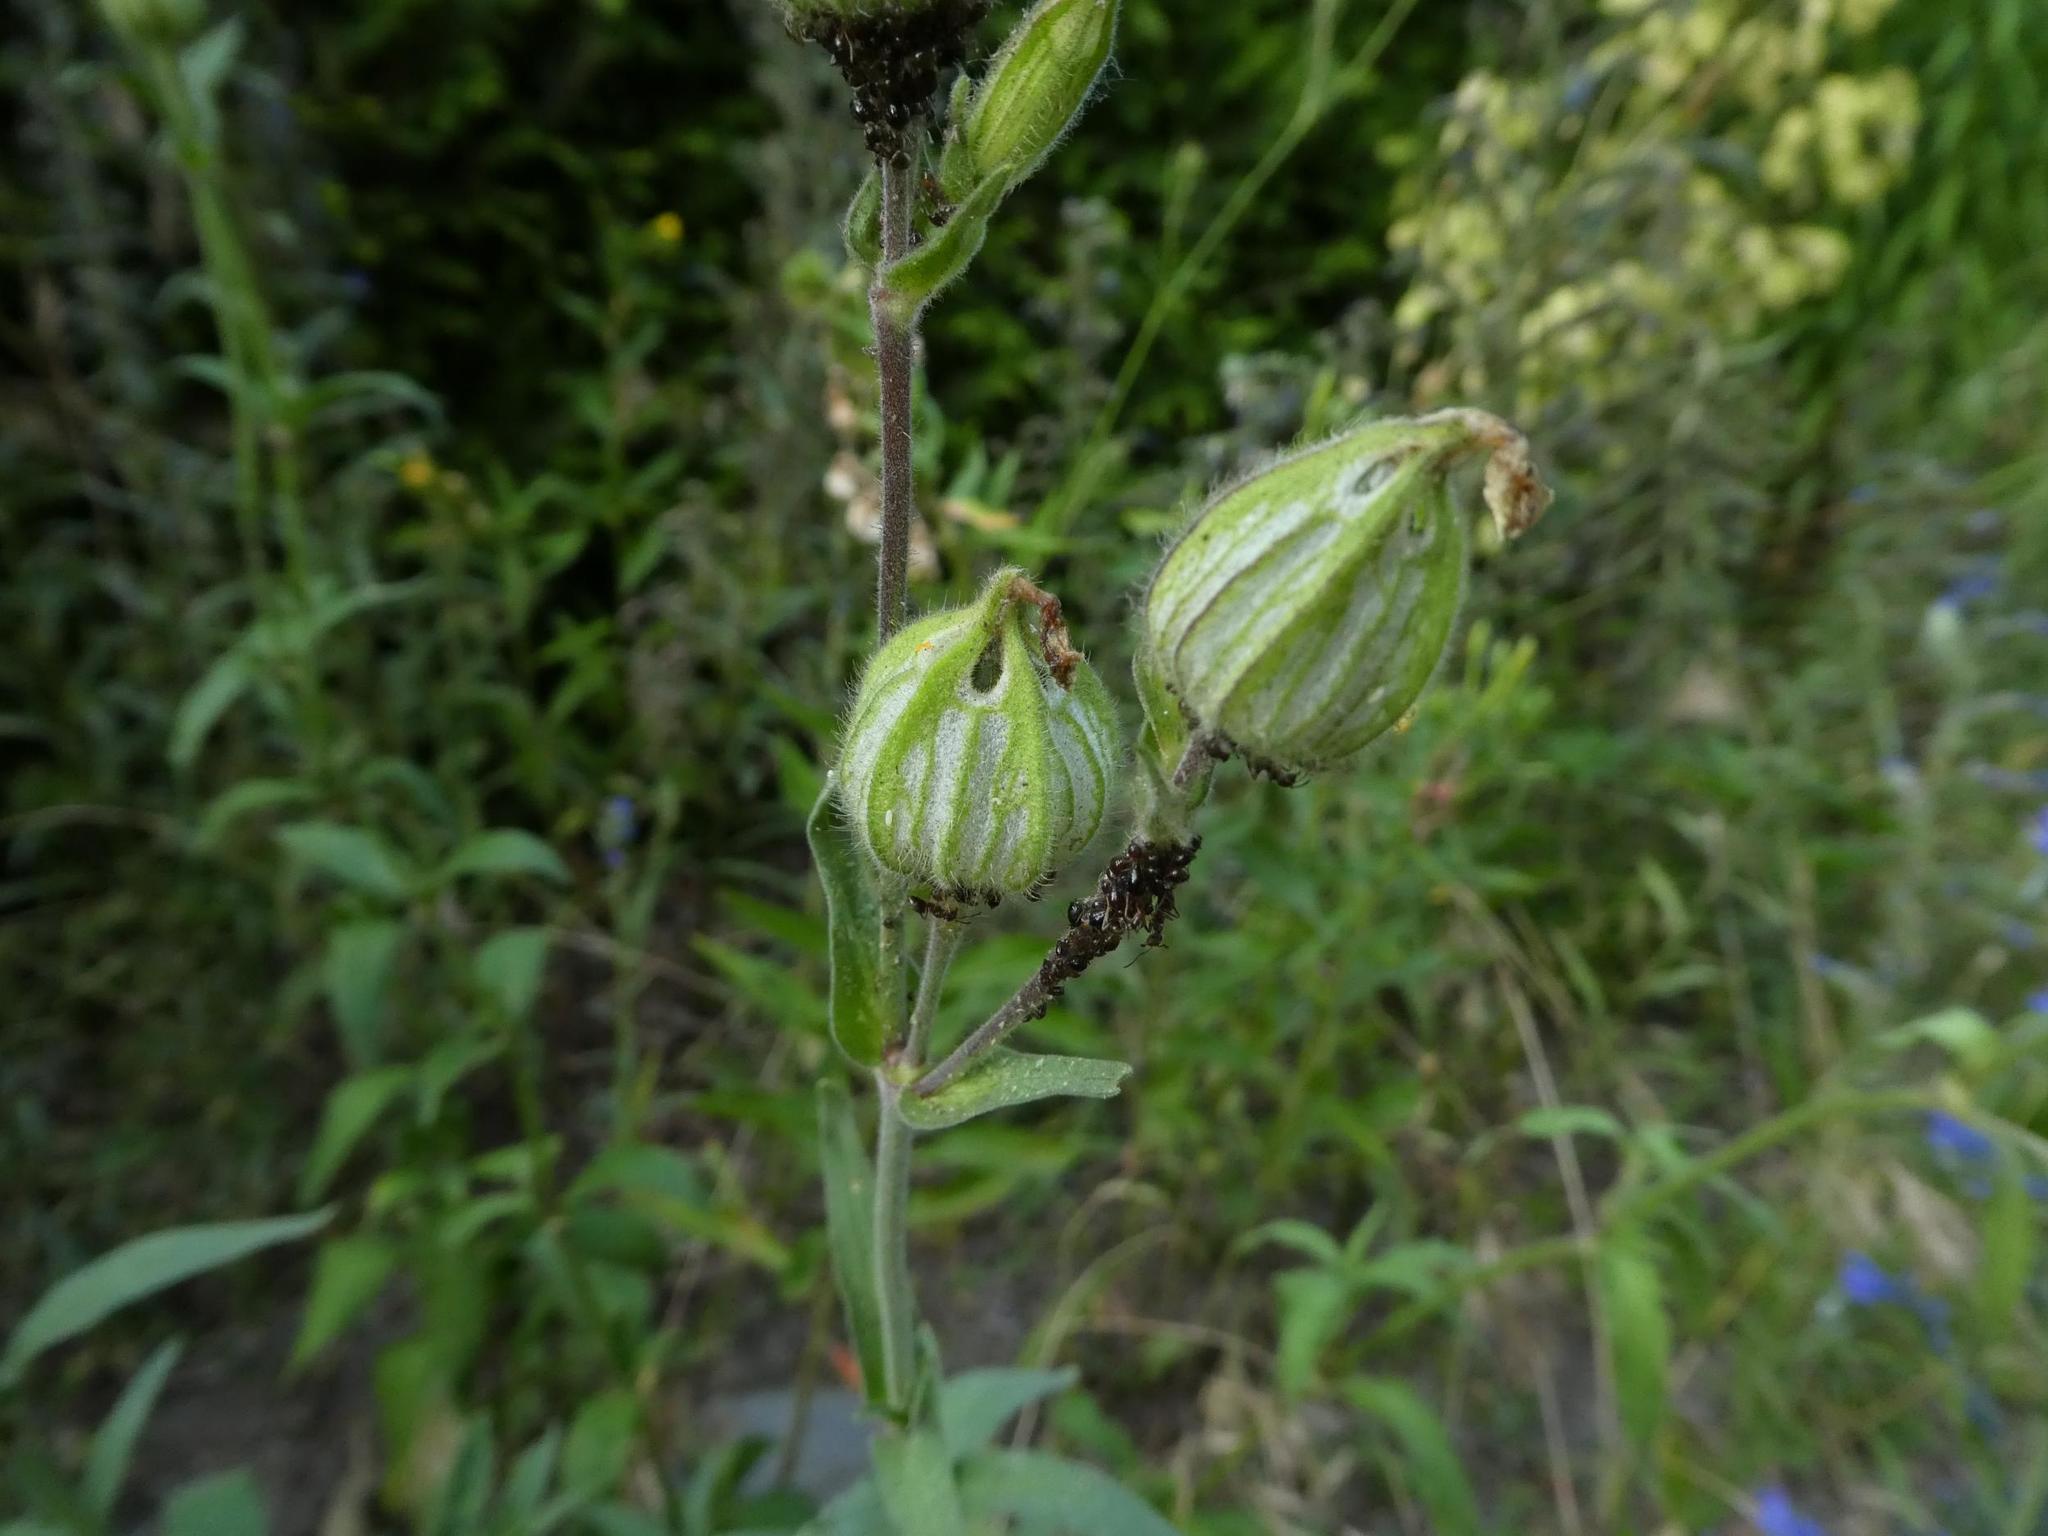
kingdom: Plantae
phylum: Tracheophyta
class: Magnoliopsida
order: Caryophyllales
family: Caryophyllaceae
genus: Silene
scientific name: Silene latifolia
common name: White campion
